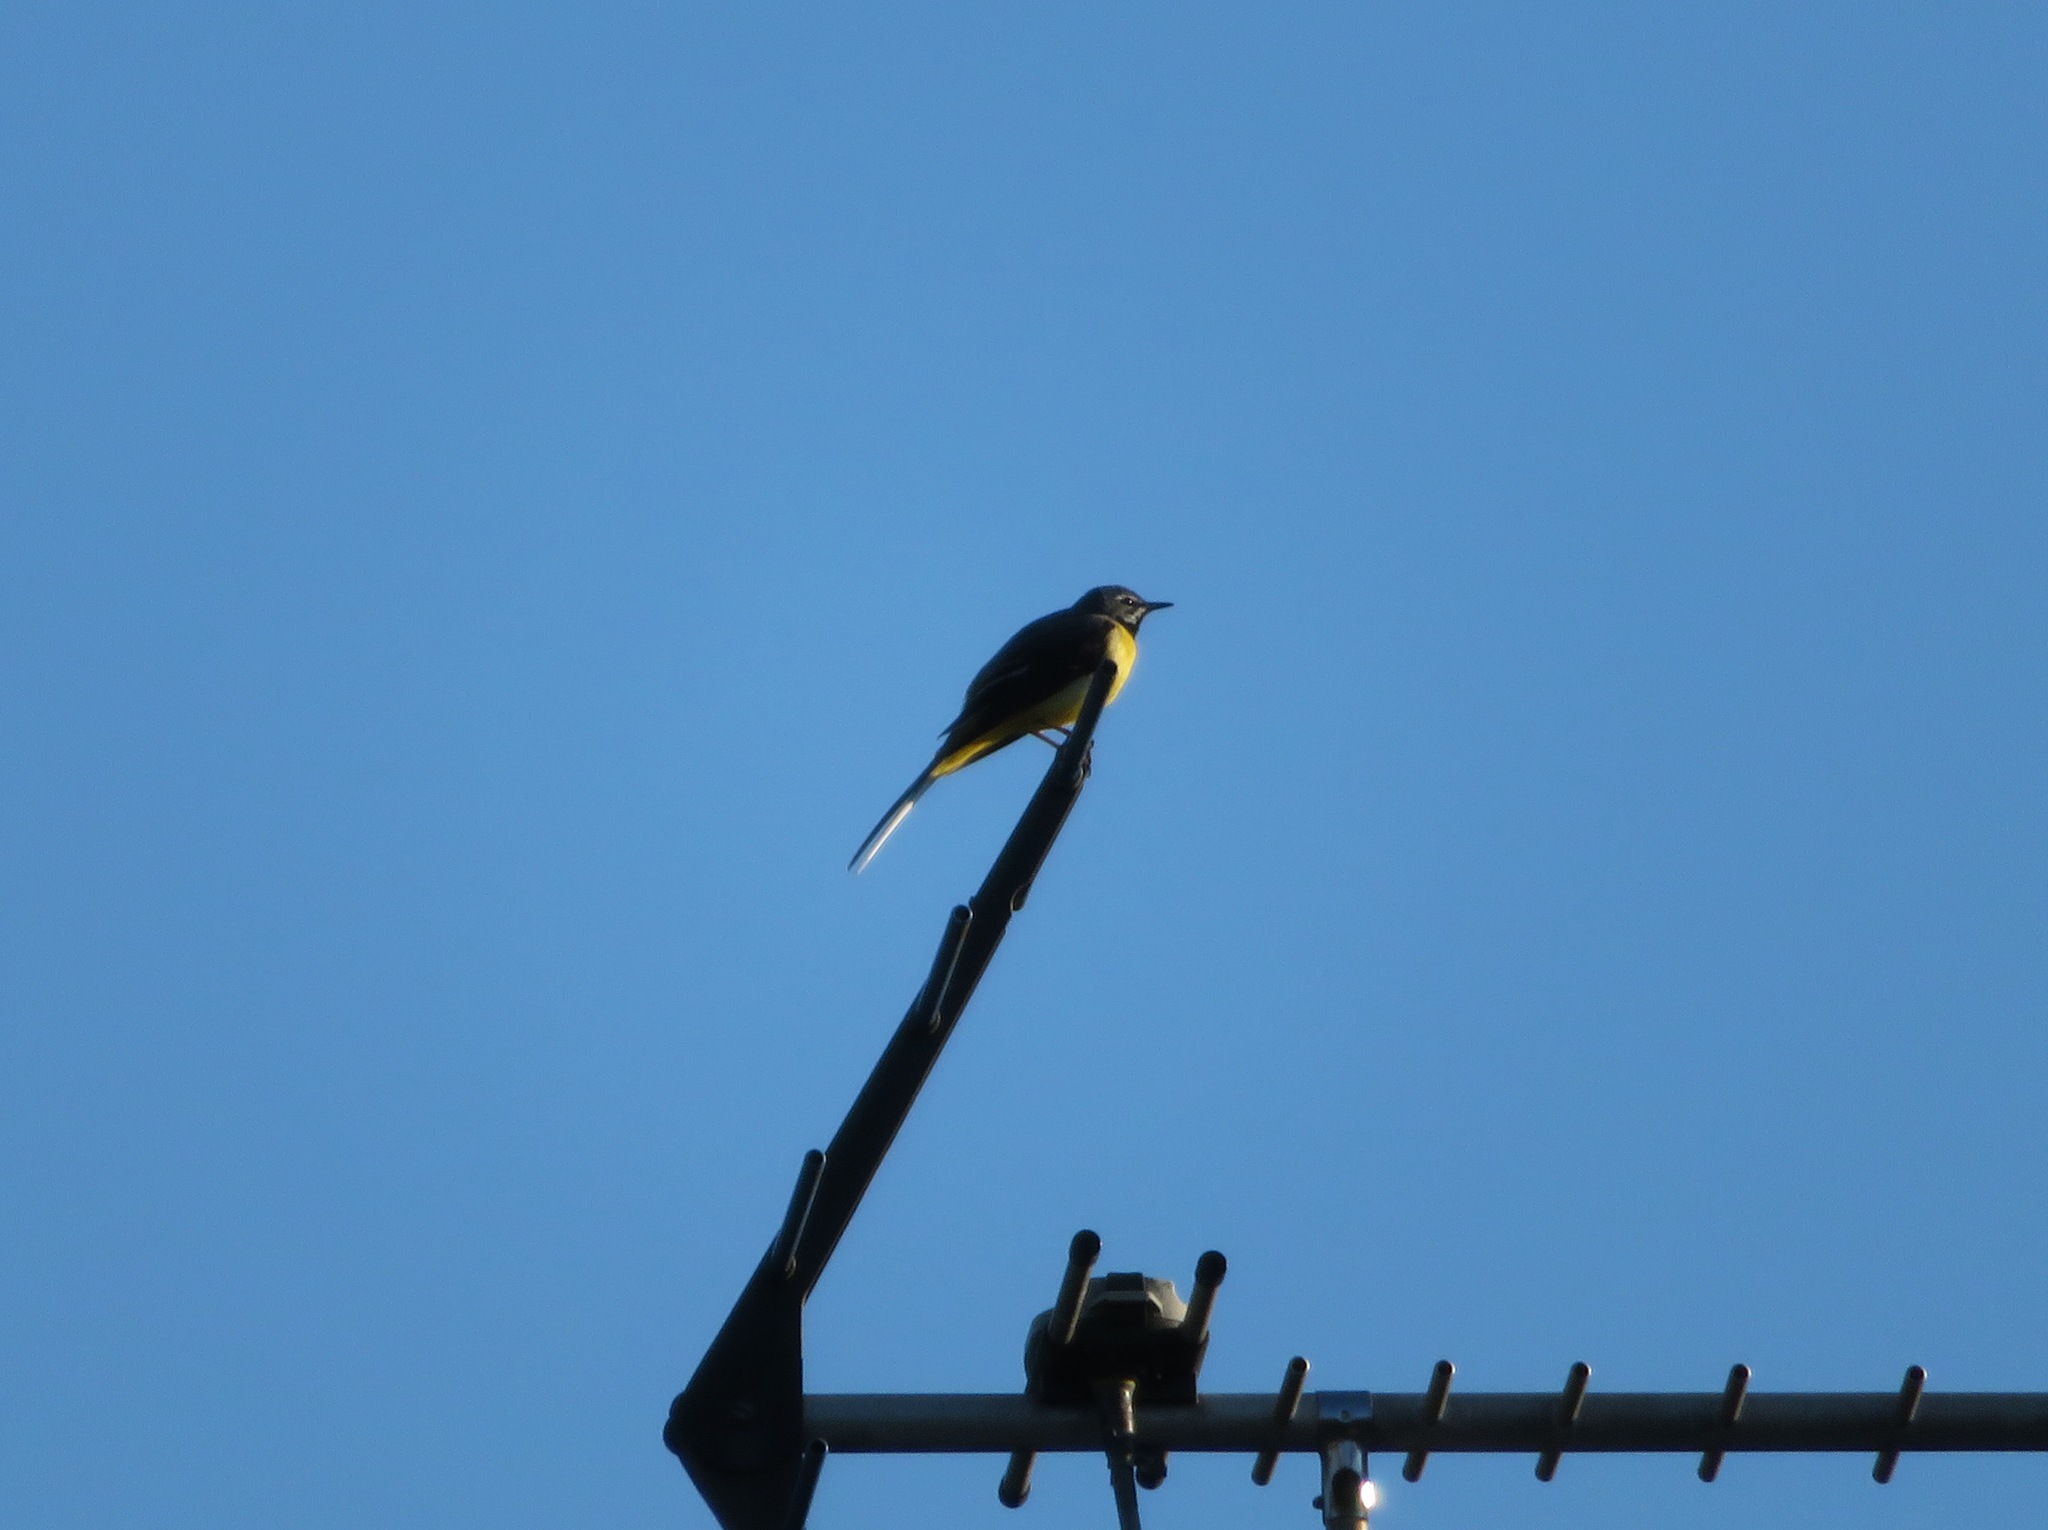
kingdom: Animalia
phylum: Chordata
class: Aves
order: Passeriformes
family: Motacillidae
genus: Motacilla
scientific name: Motacilla cinerea
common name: Grey wagtail
